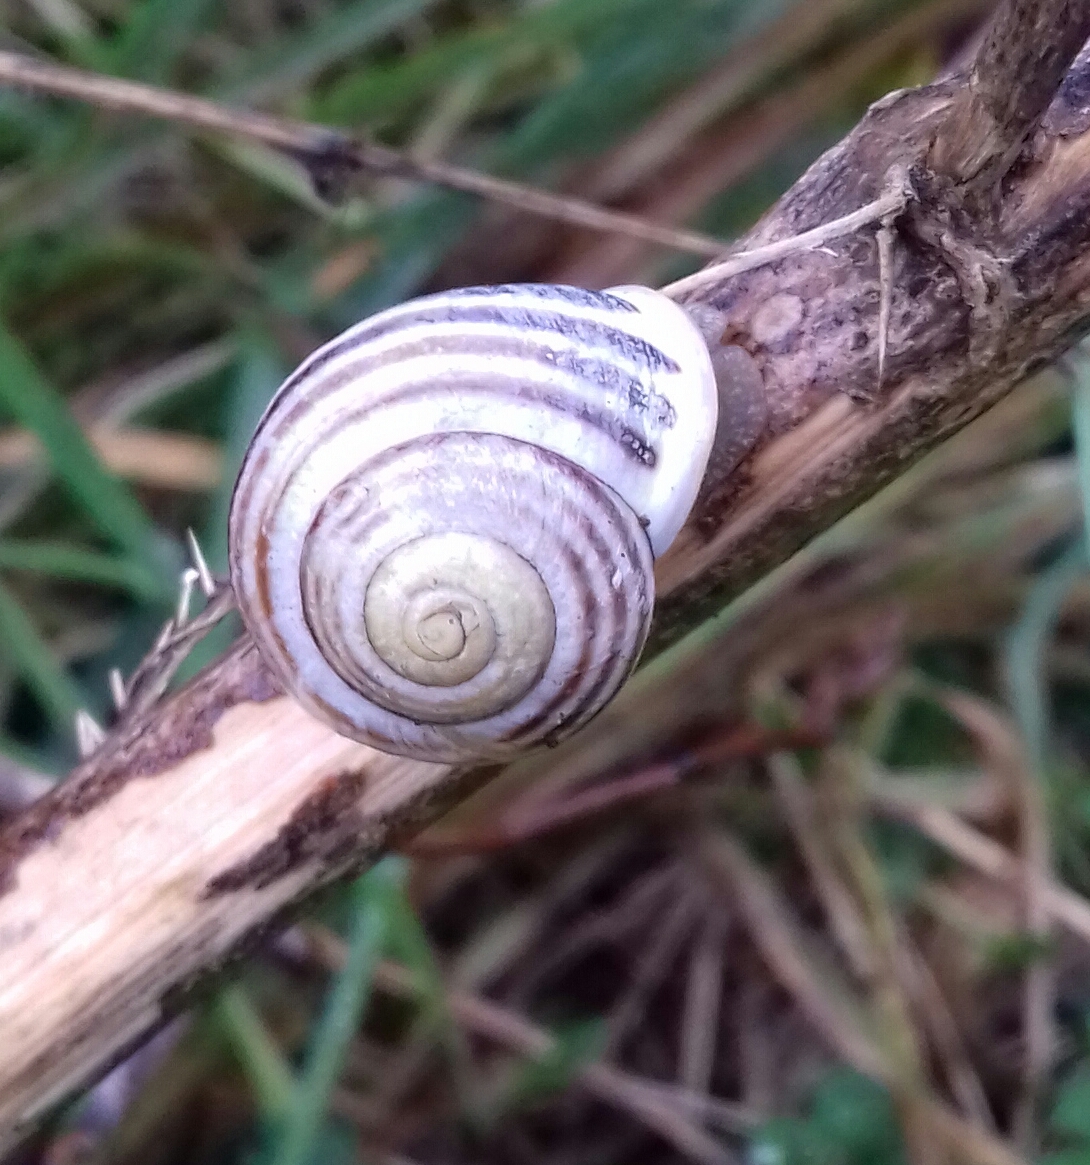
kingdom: Animalia
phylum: Mollusca
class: Gastropoda
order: Stylommatophora
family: Helicidae
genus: Cepaea
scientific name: Cepaea hortensis
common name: White-lip gardensnail
